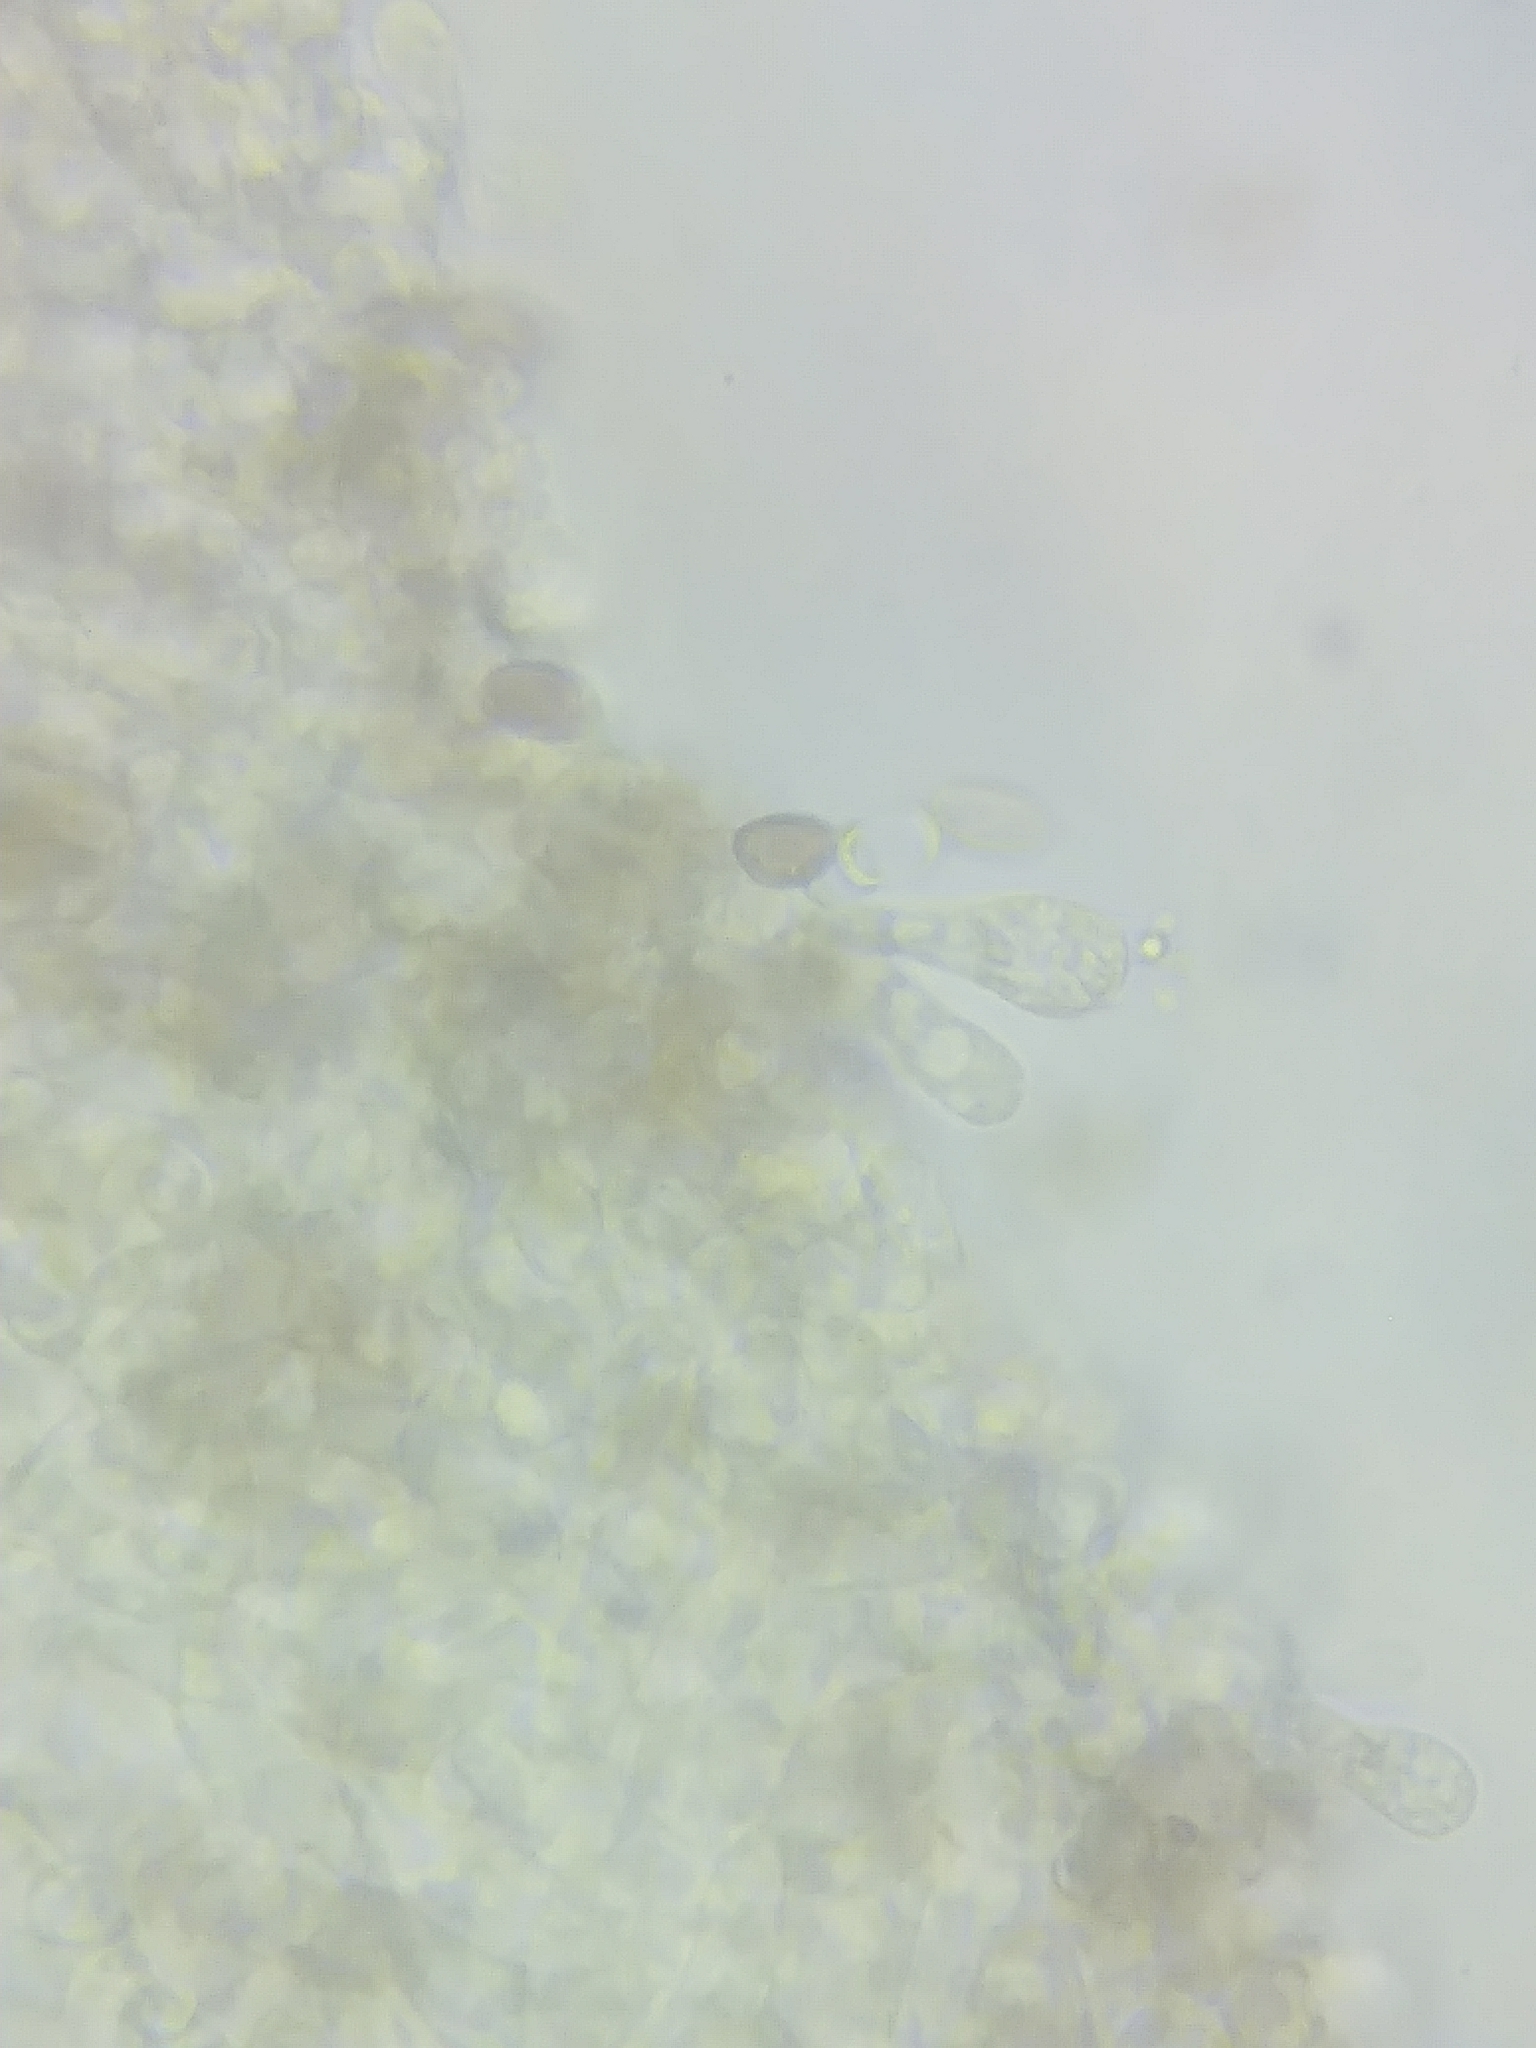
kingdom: Fungi
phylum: Basidiomycota
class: Agaricomycetes
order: Agaricales
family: Psathyrellaceae
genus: Psathyrella
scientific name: Psathyrella romellii
